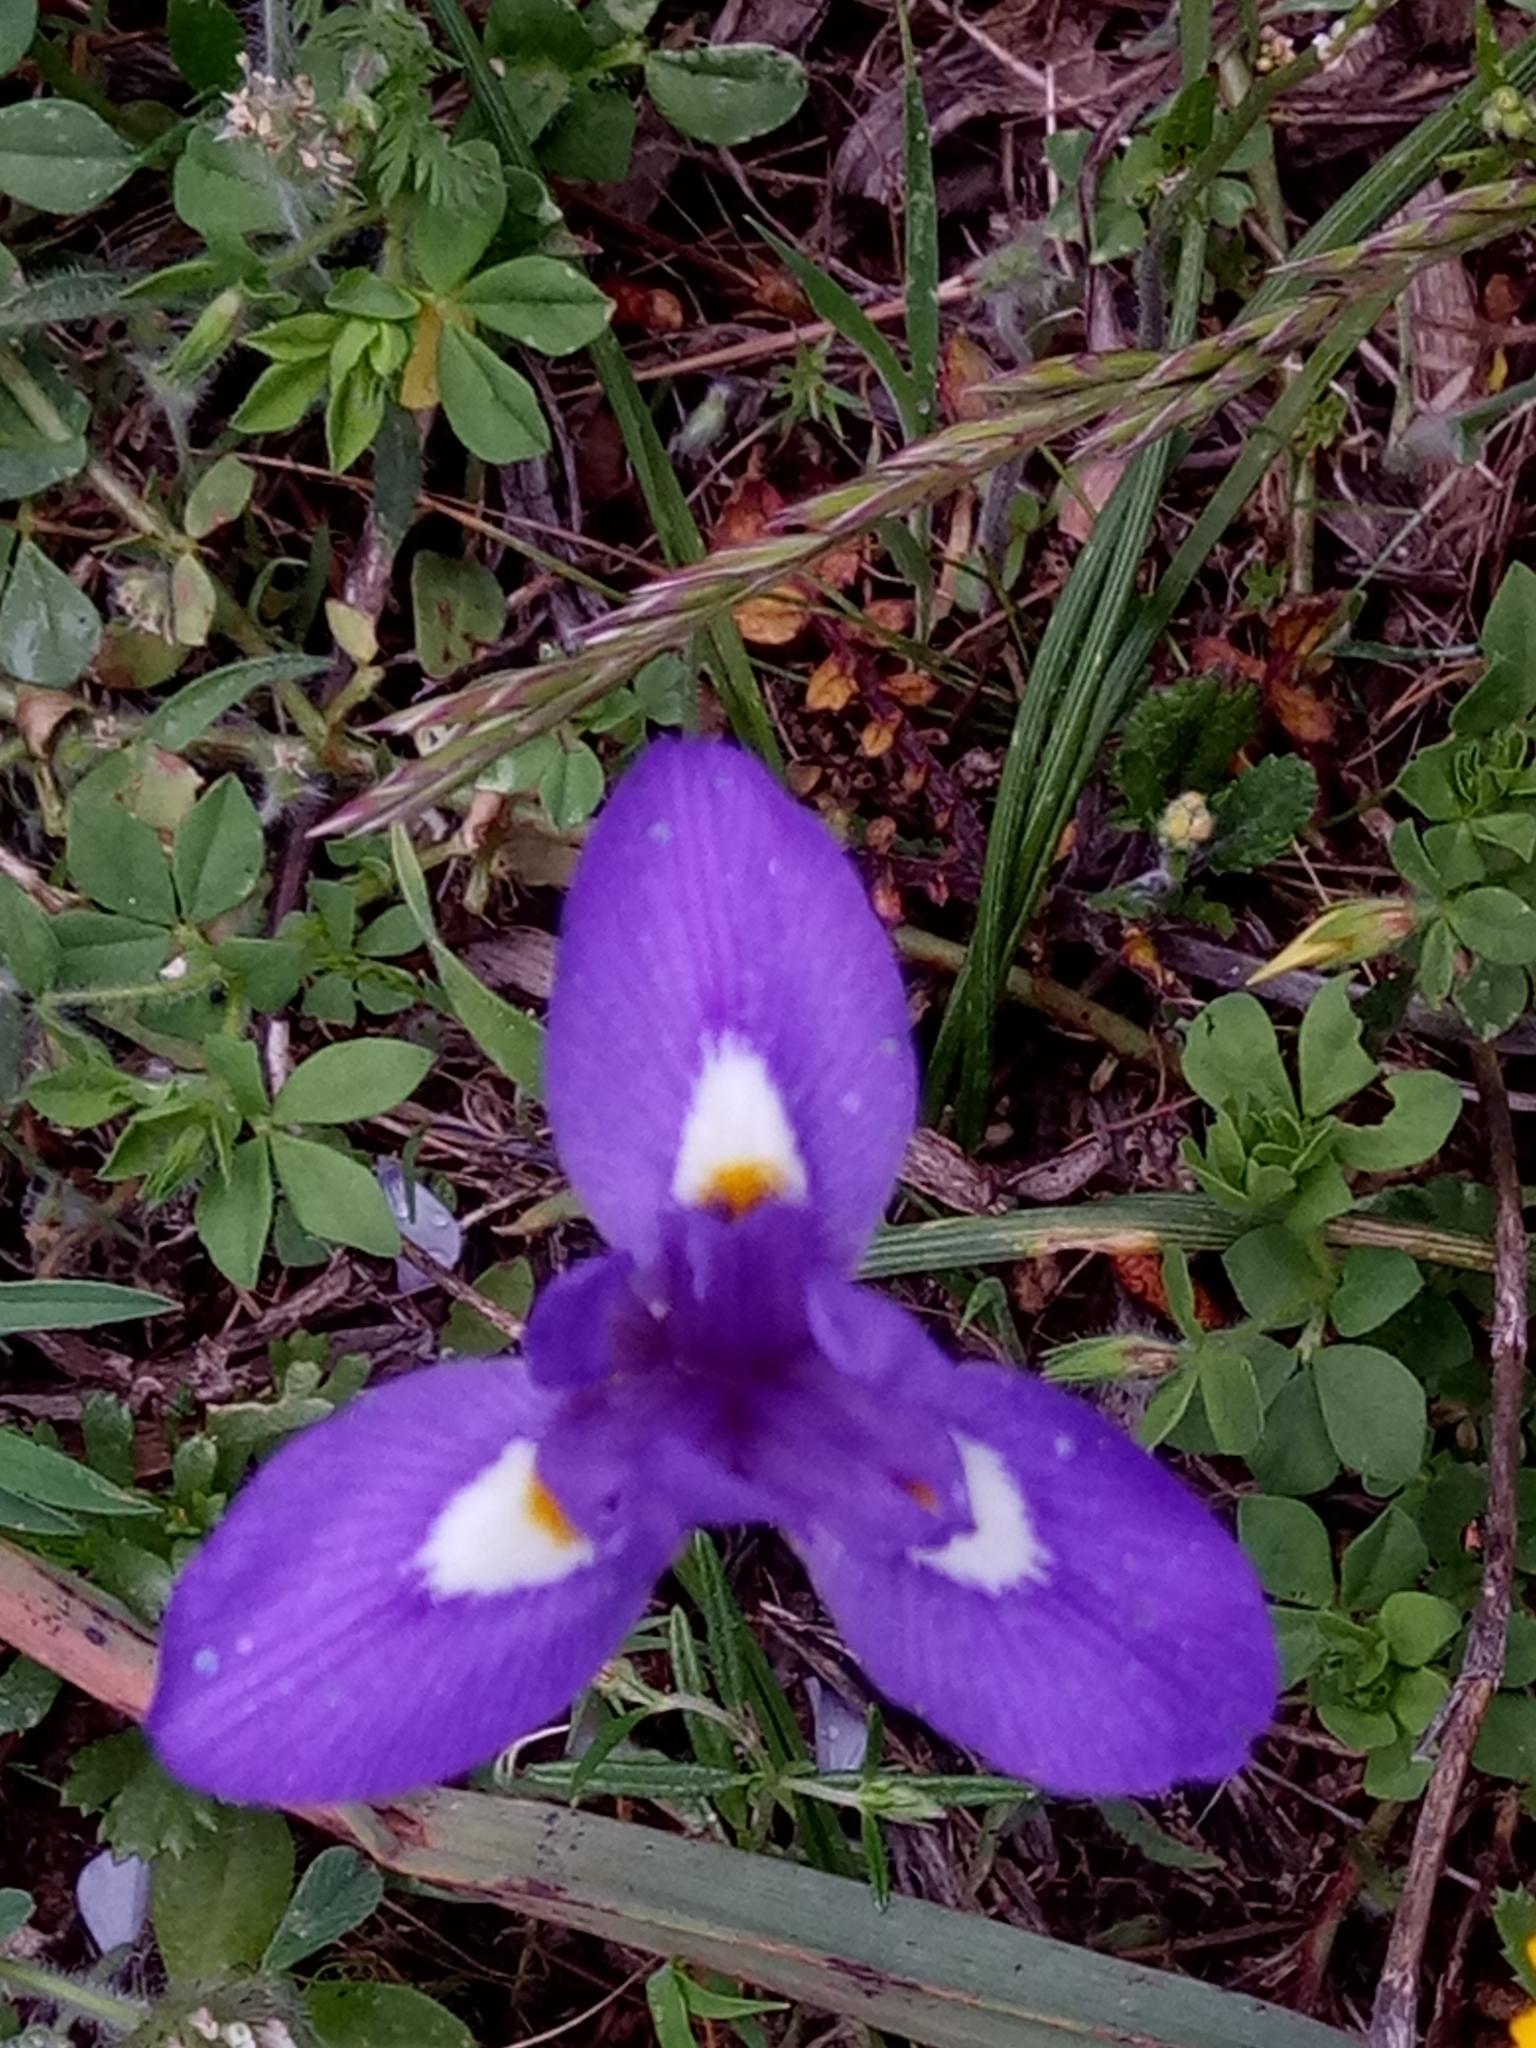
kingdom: Plantae
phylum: Tracheophyta
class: Liliopsida
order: Asparagales
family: Iridaceae
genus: Moraea
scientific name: Moraea sisyrinchium
